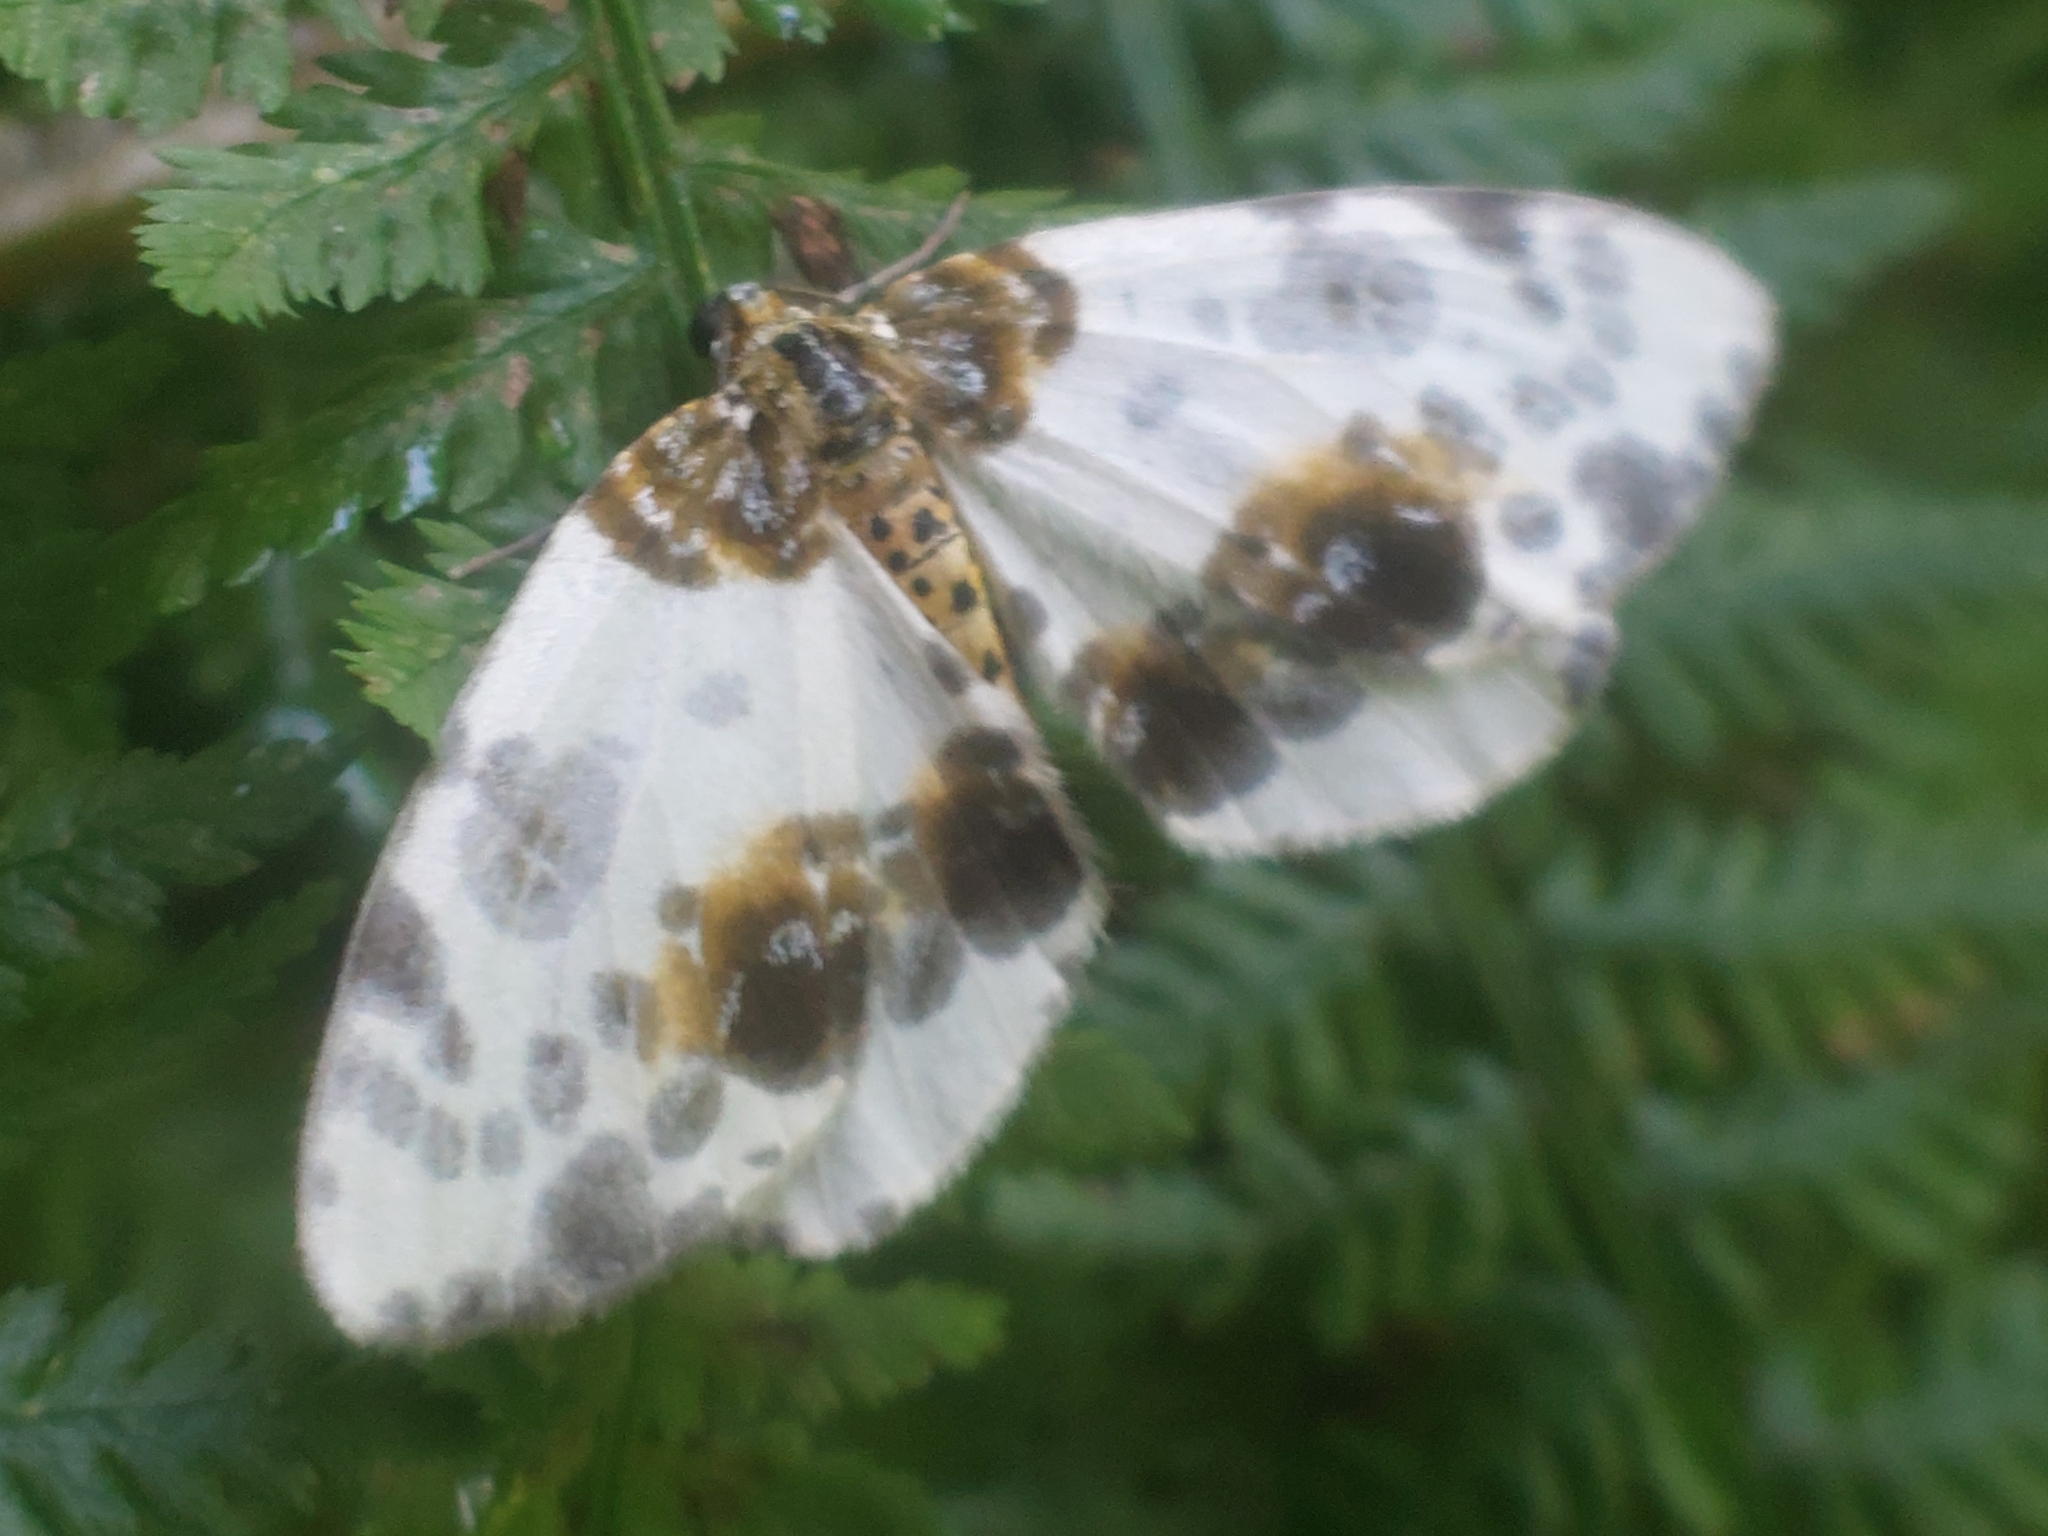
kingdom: Animalia
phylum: Arthropoda
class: Insecta
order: Lepidoptera
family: Geometridae
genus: Abraxas
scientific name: Abraxas sylvata
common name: Clouded magpie
